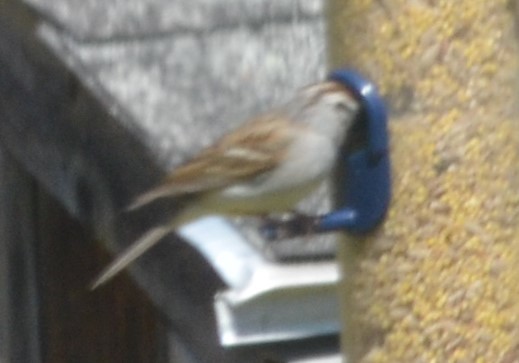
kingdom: Animalia
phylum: Chordata
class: Aves
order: Passeriformes
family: Passerellidae
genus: Spizella
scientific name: Spizella passerina
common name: Chipping sparrow
